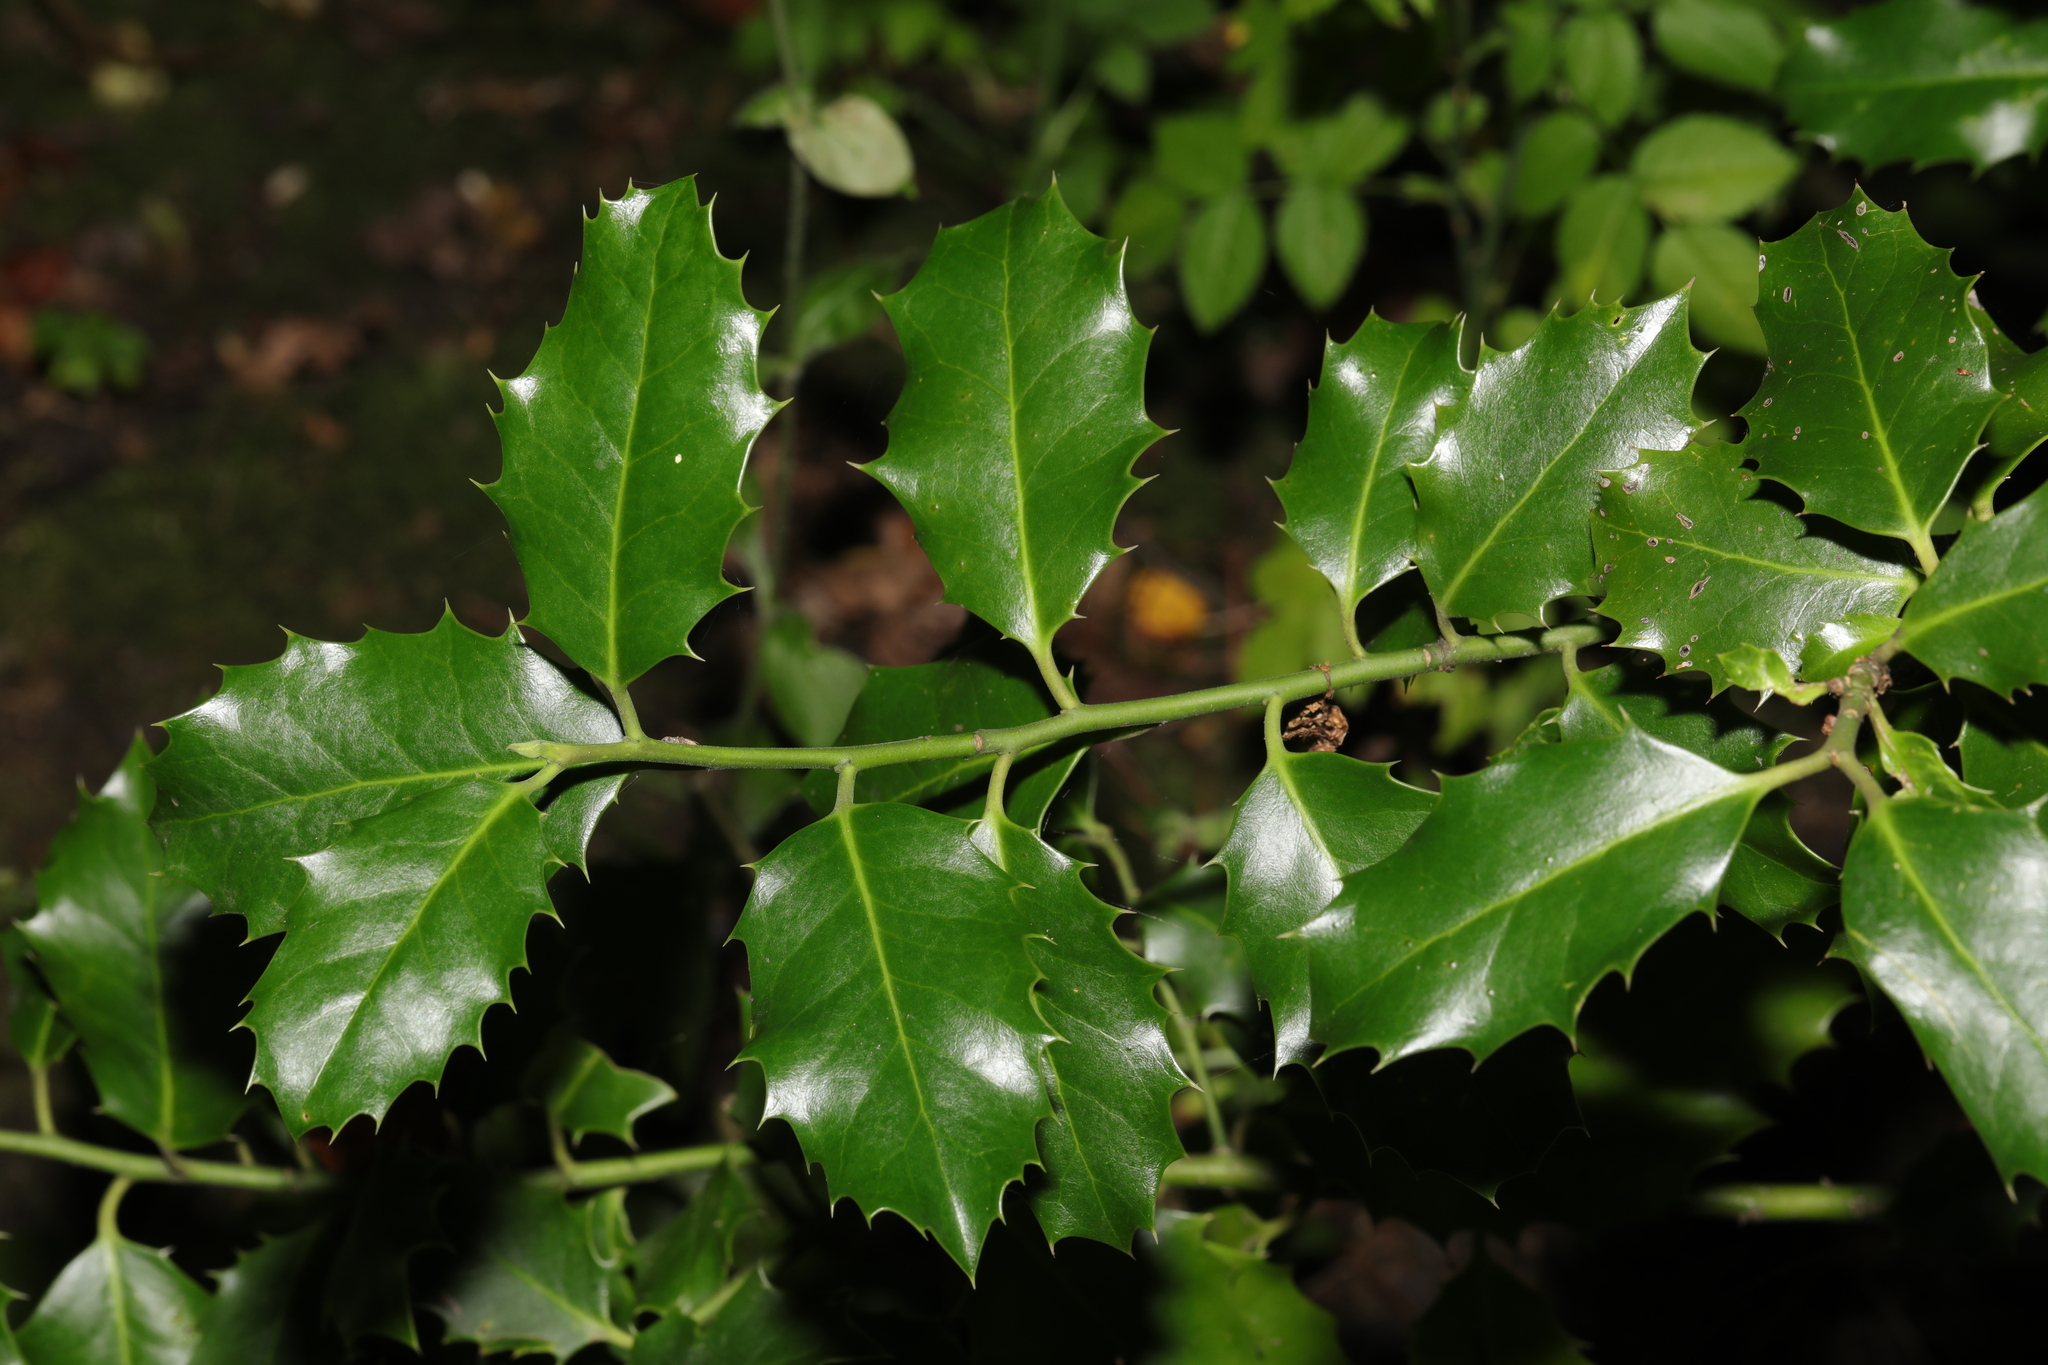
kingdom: Plantae
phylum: Tracheophyta
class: Magnoliopsida
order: Aquifoliales
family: Aquifoliaceae
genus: Ilex
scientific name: Ilex aquifolium
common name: English holly
